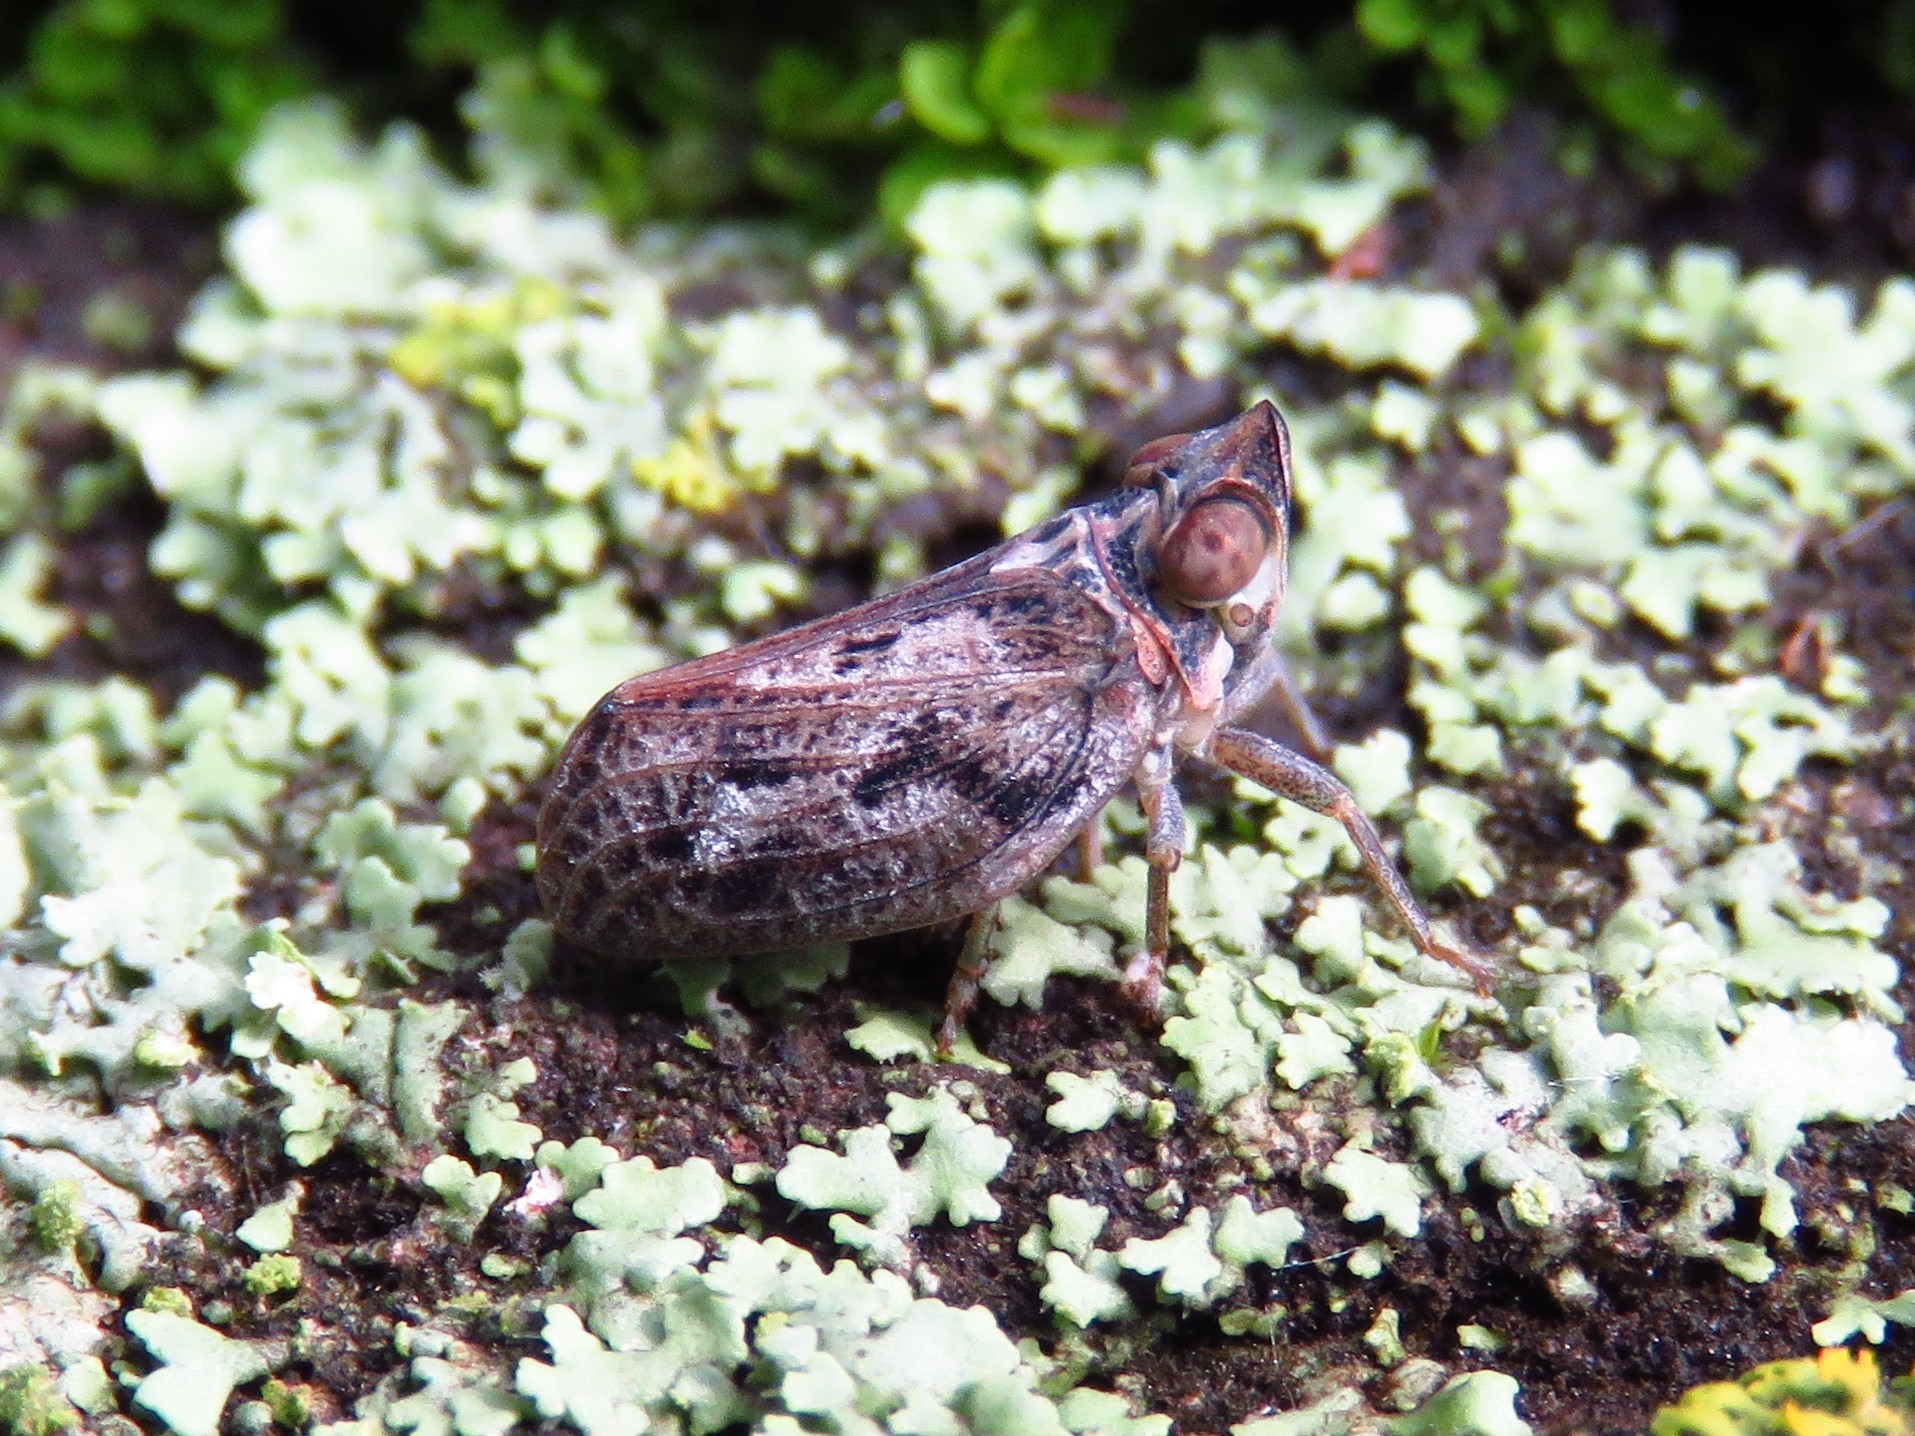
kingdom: Animalia
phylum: Arthropoda
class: Insecta
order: Hemiptera
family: Issidae
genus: Fowlerium
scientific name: Fowlerium acutum
